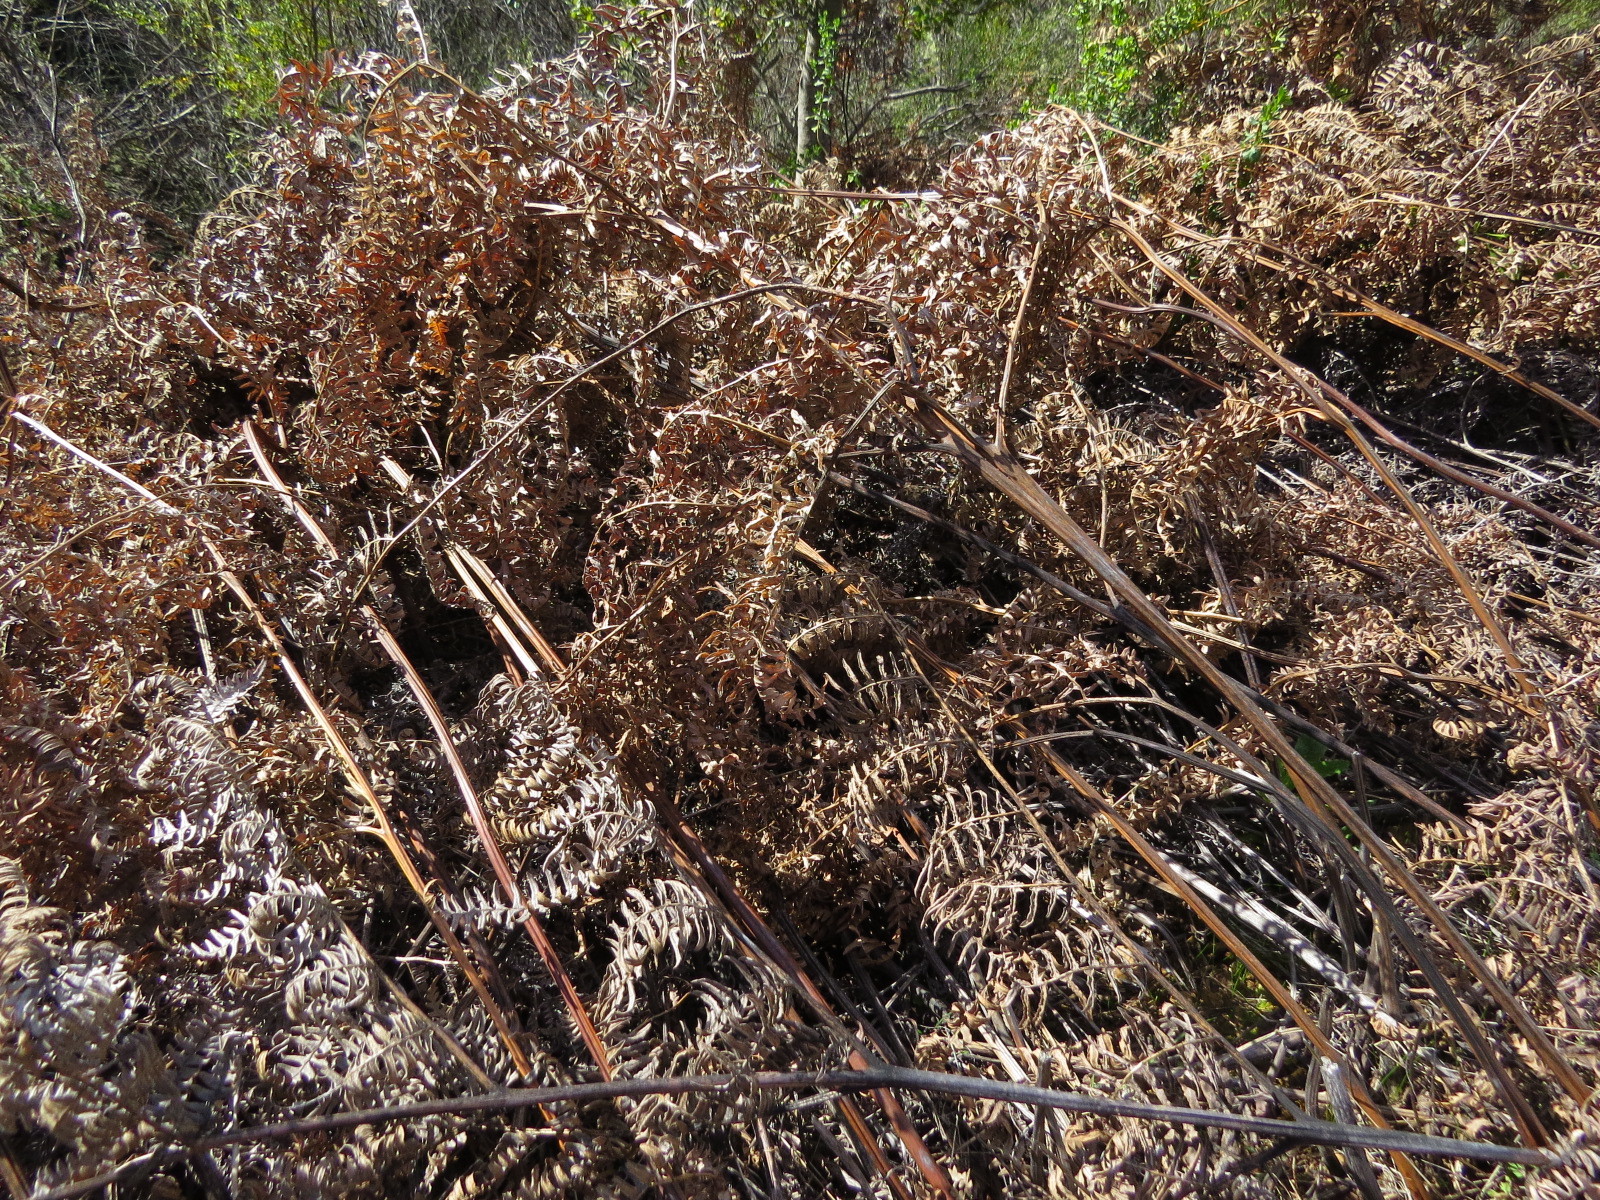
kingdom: Plantae
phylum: Tracheophyta
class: Polypodiopsida
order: Polypodiales
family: Dennstaedtiaceae
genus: Pteridium
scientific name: Pteridium aquilinum
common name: Bracken
